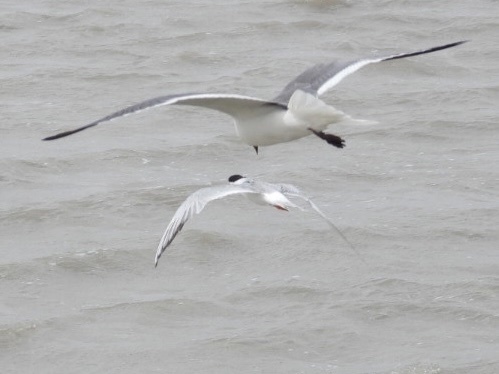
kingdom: Animalia
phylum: Chordata
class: Aves
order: Charadriiformes
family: Laridae
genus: Leucophaeus
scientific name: Leucophaeus atricilla
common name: Laughing gull
